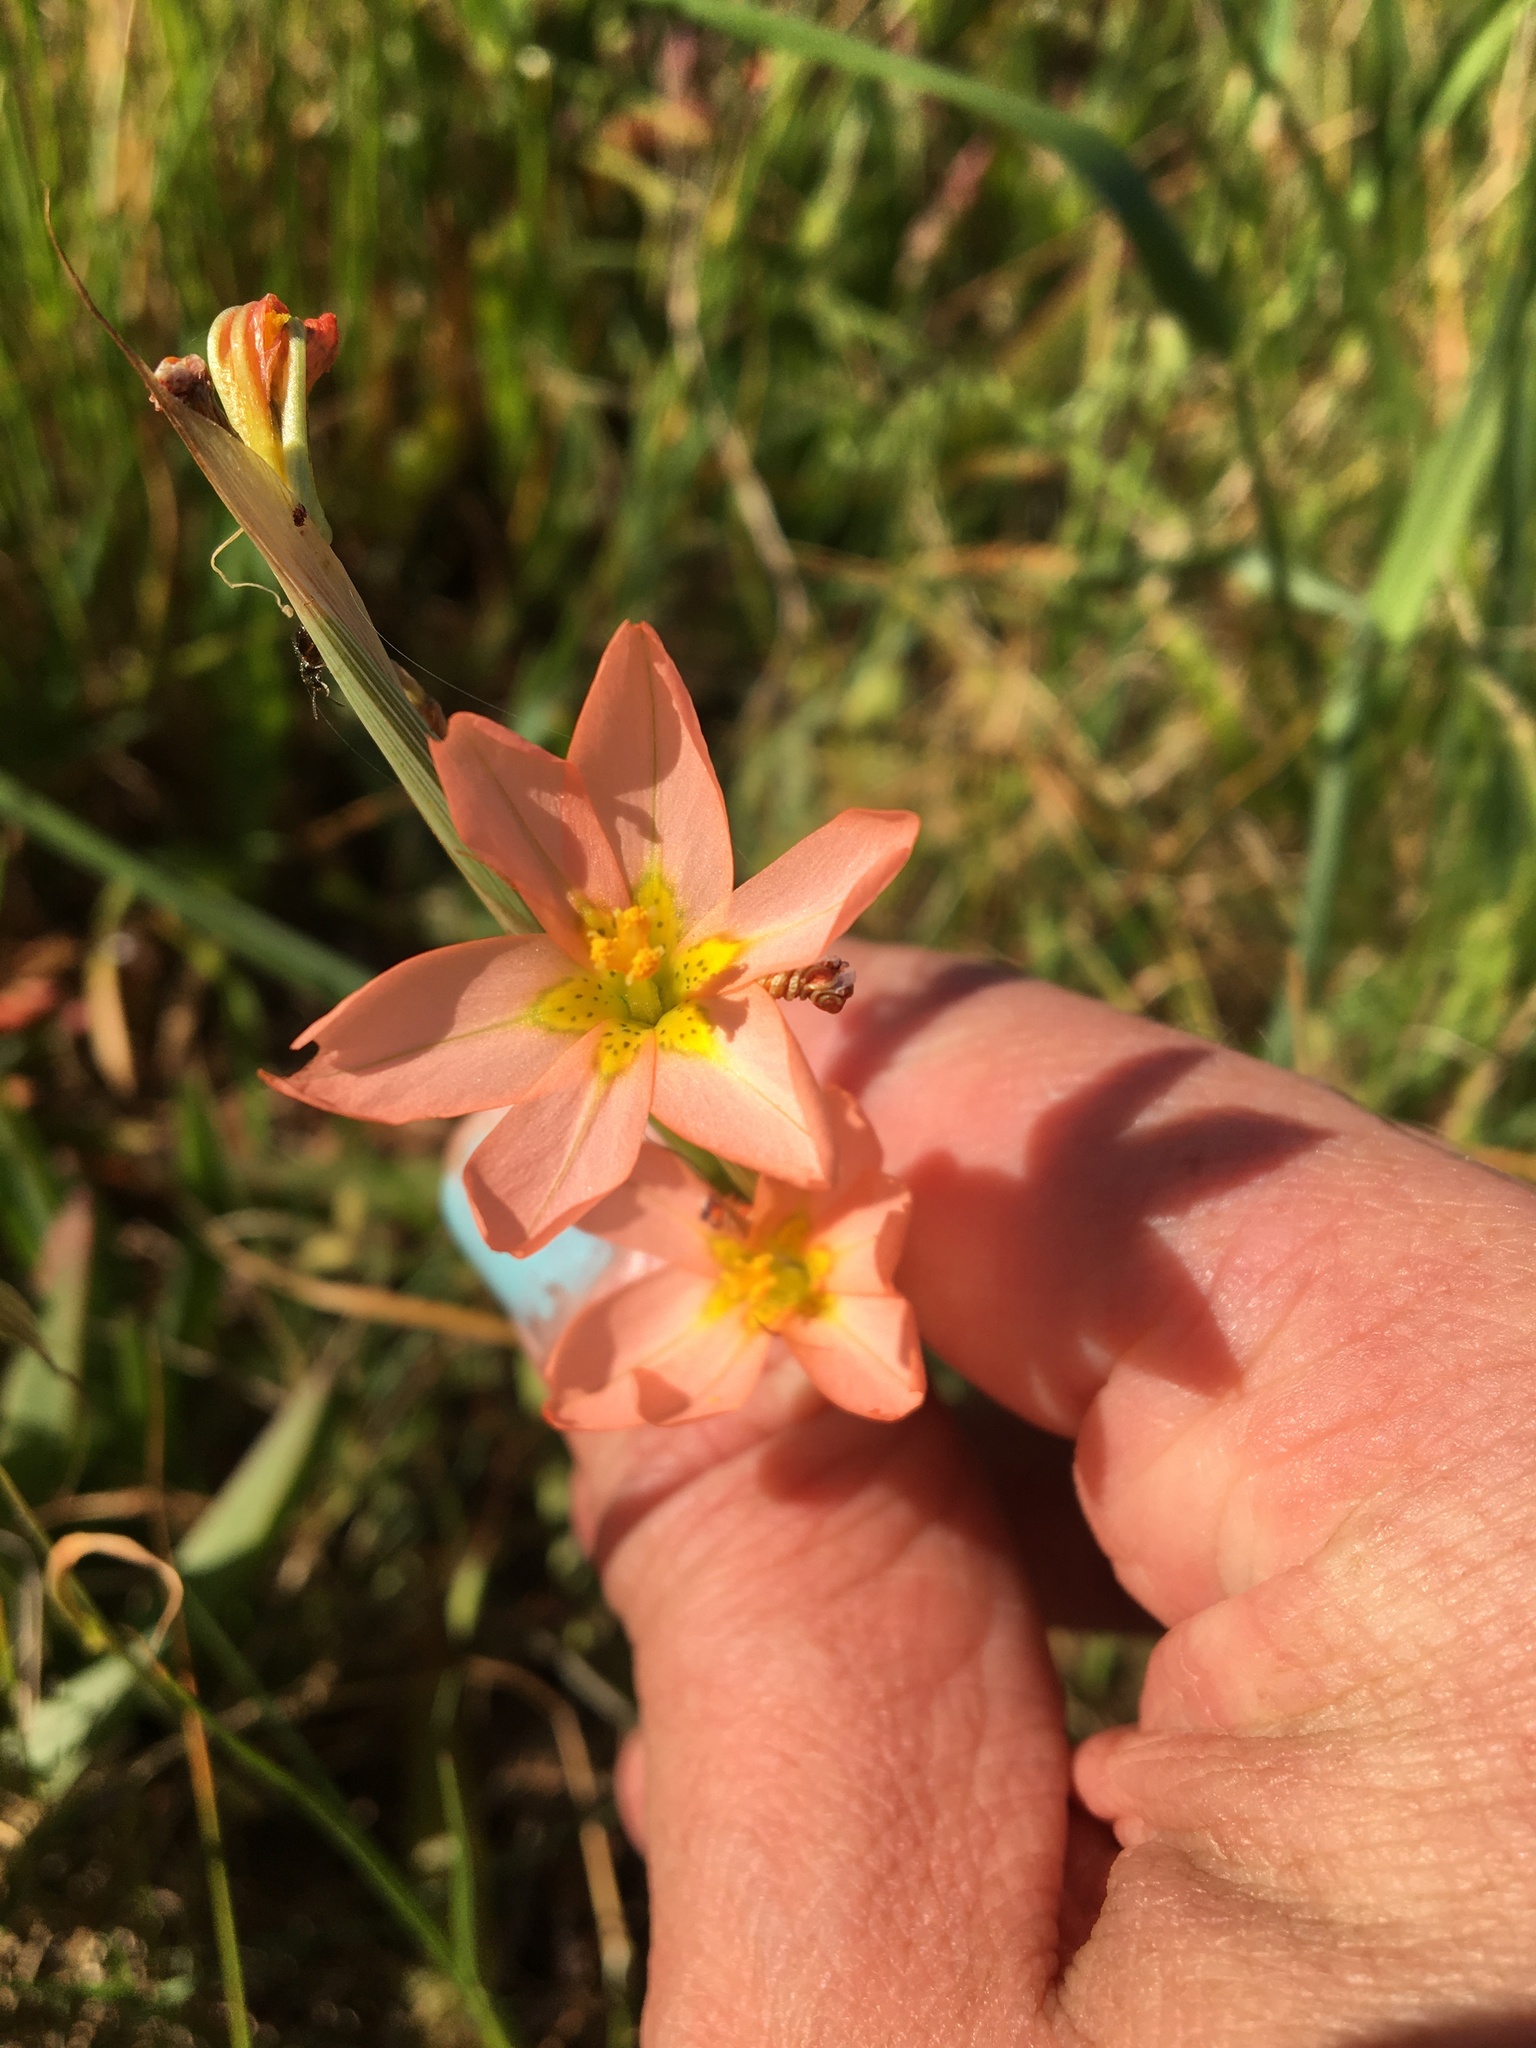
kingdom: Plantae
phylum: Tracheophyta
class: Liliopsida
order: Asparagales
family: Iridaceae
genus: Moraea
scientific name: Moraea miniata
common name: Two-leaf cape-tulip
